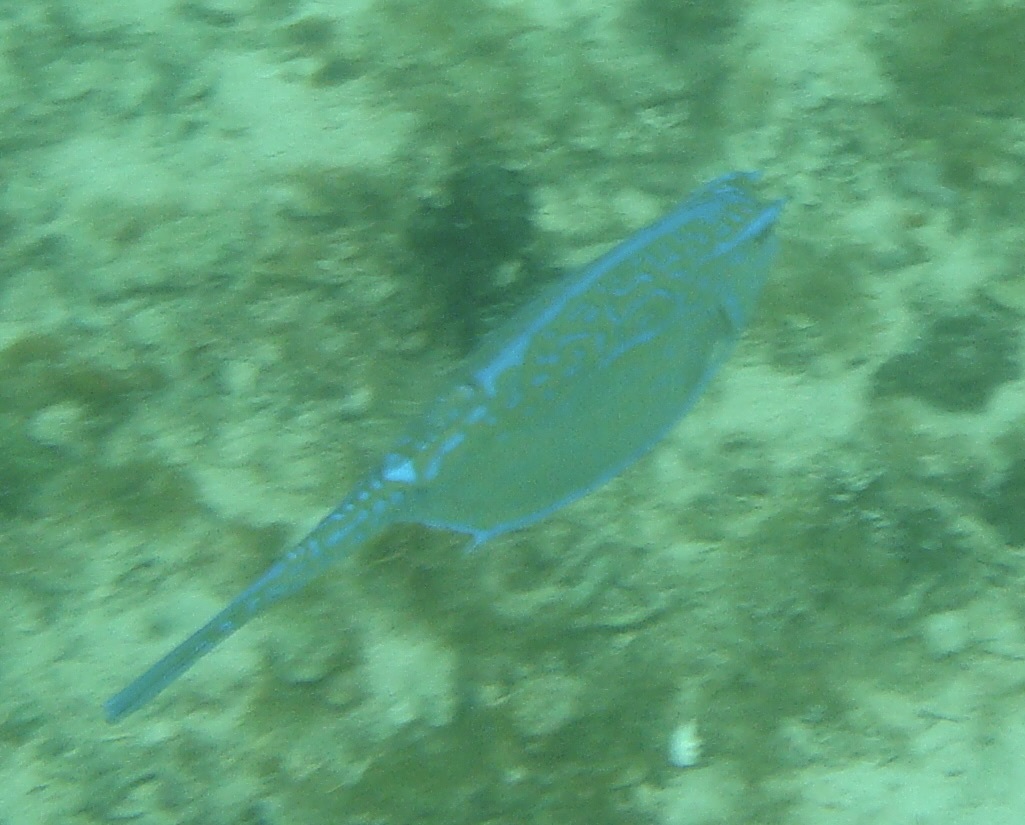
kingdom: Animalia
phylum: Chordata
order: Tetraodontiformes
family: Ostraciidae
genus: Acanthostracion
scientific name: Acanthostracion quadricornis
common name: Scrawled cowfish
